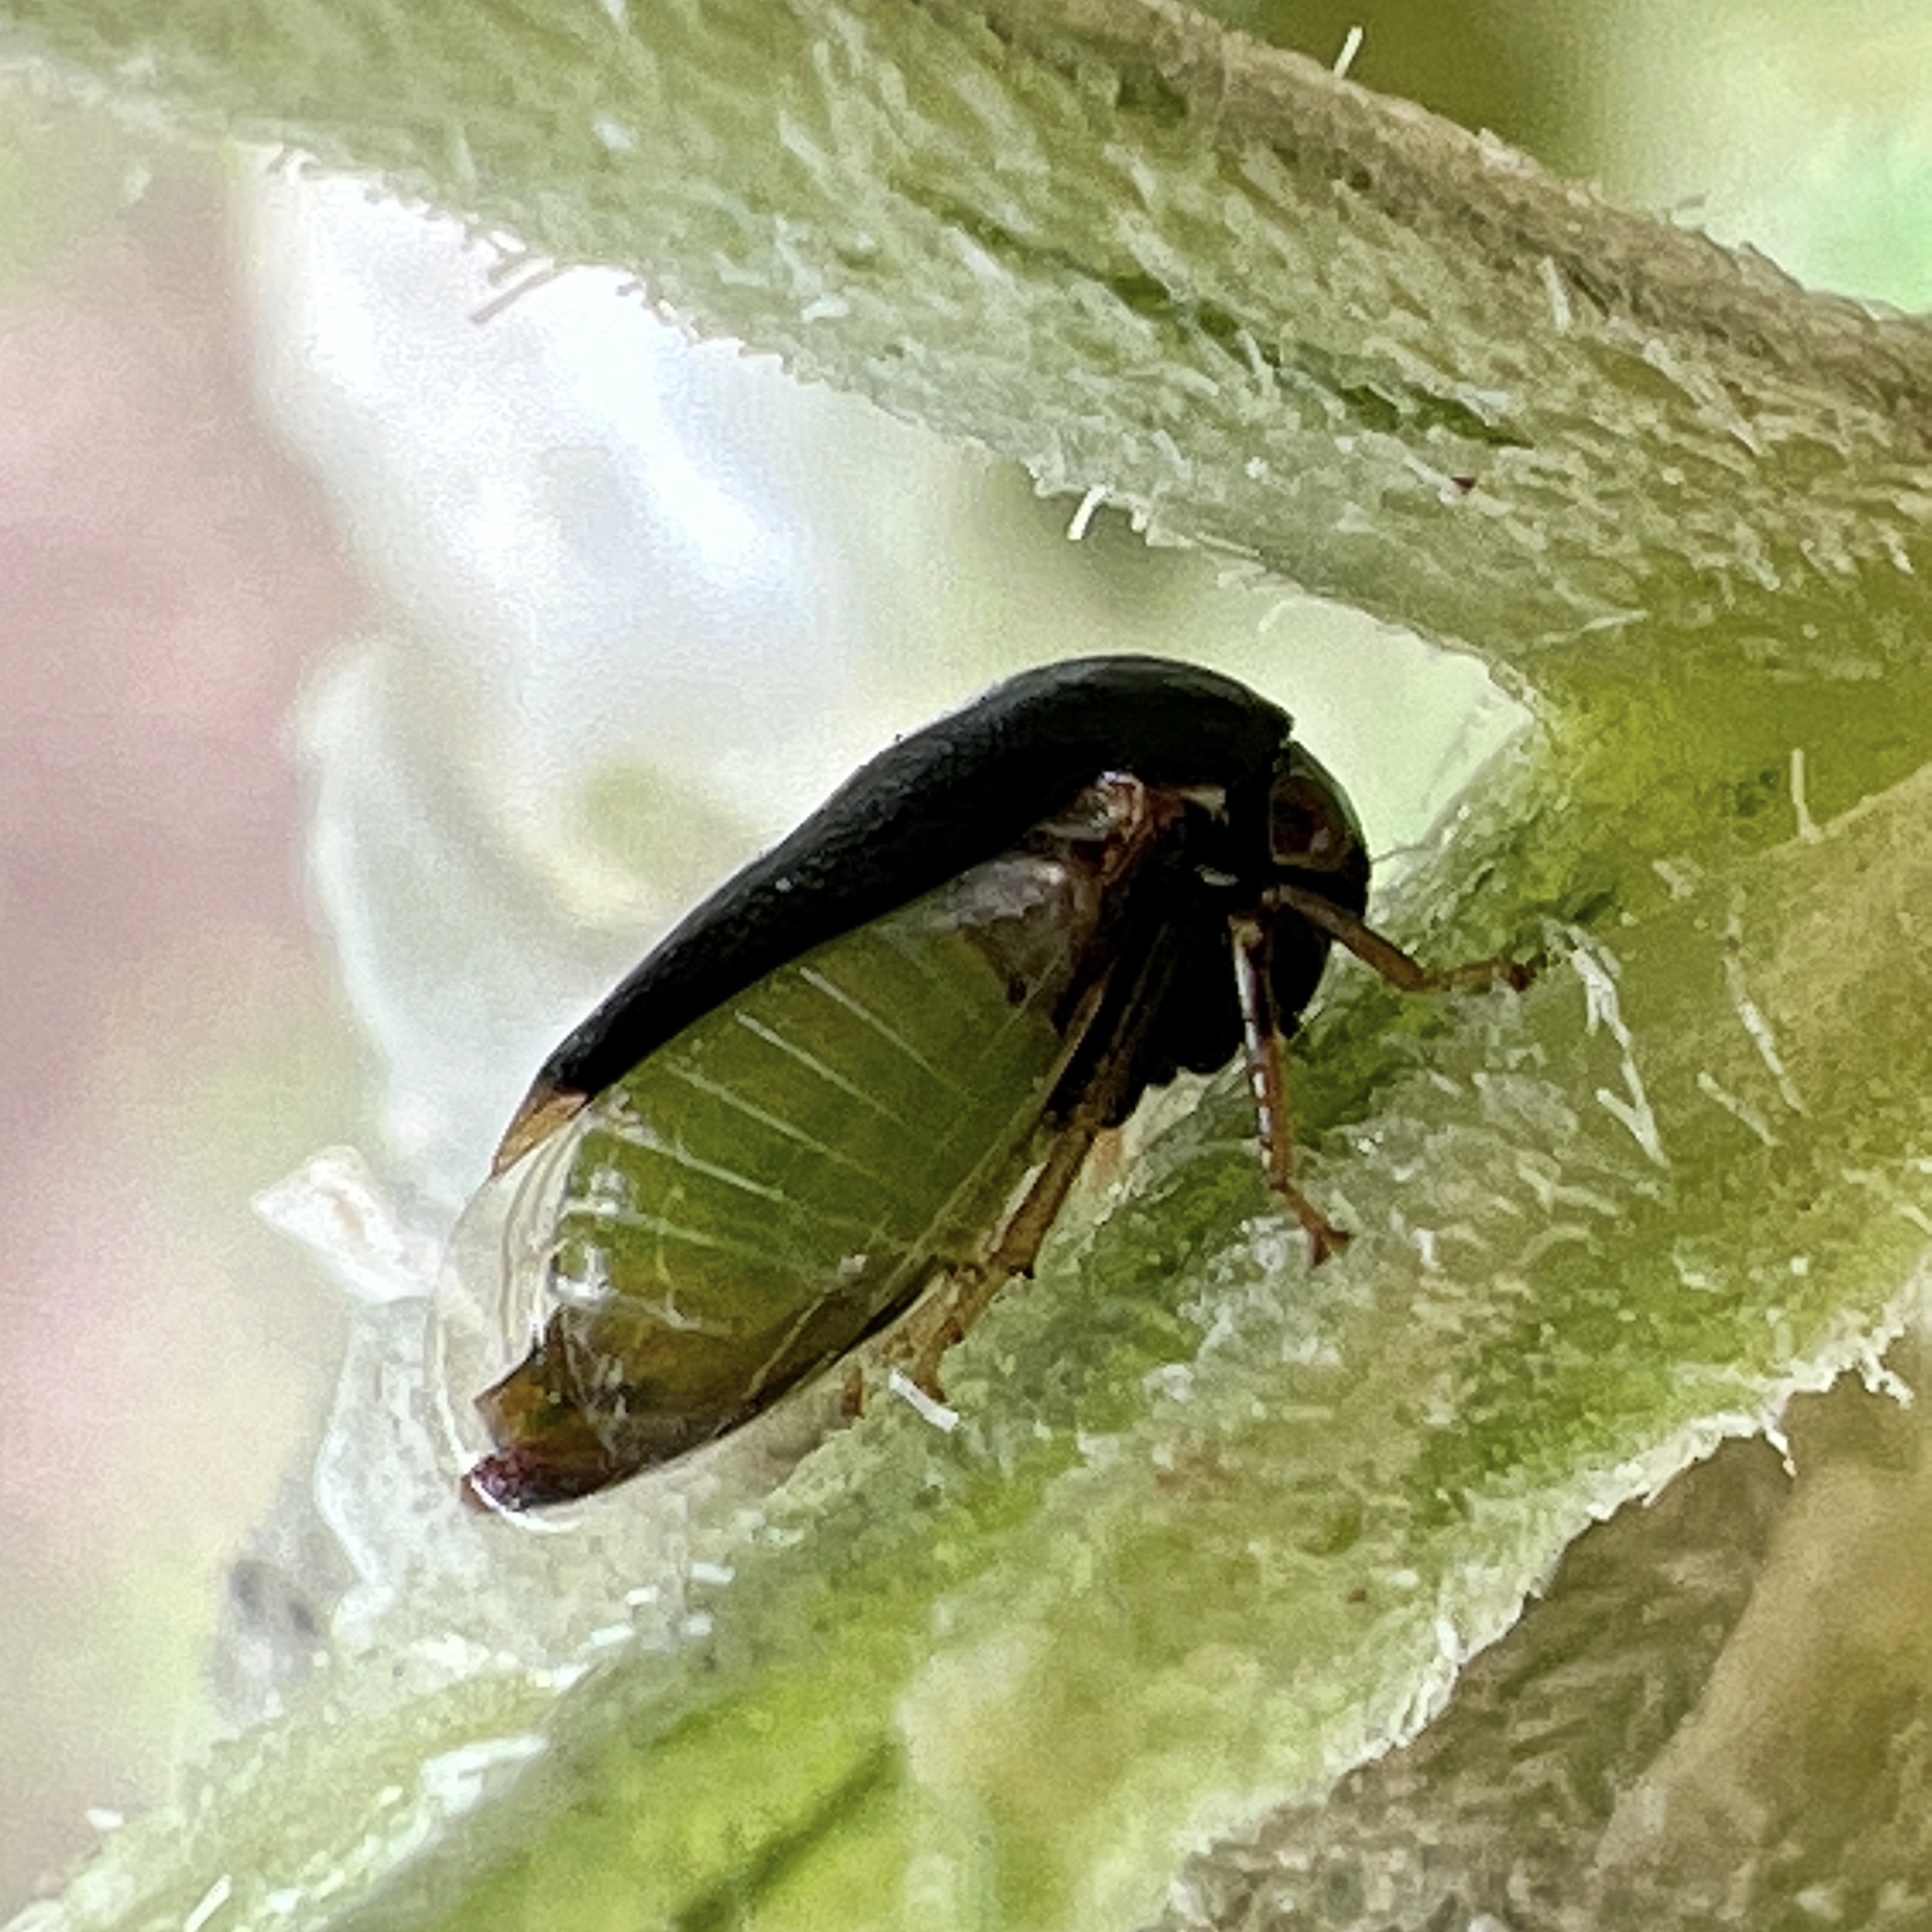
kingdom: Animalia
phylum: Arthropoda
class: Insecta
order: Hemiptera
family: Membracidae
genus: Micrutalis
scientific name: Micrutalis calva
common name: Honeylocust treehopper
